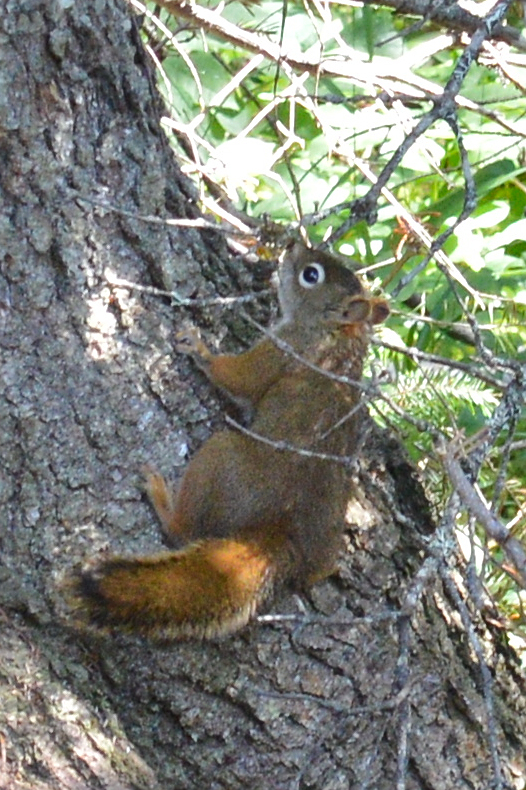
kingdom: Animalia
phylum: Chordata
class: Mammalia
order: Rodentia
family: Sciuridae
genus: Tamiasciurus
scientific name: Tamiasciurus hudsonicus
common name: Red squirrel
